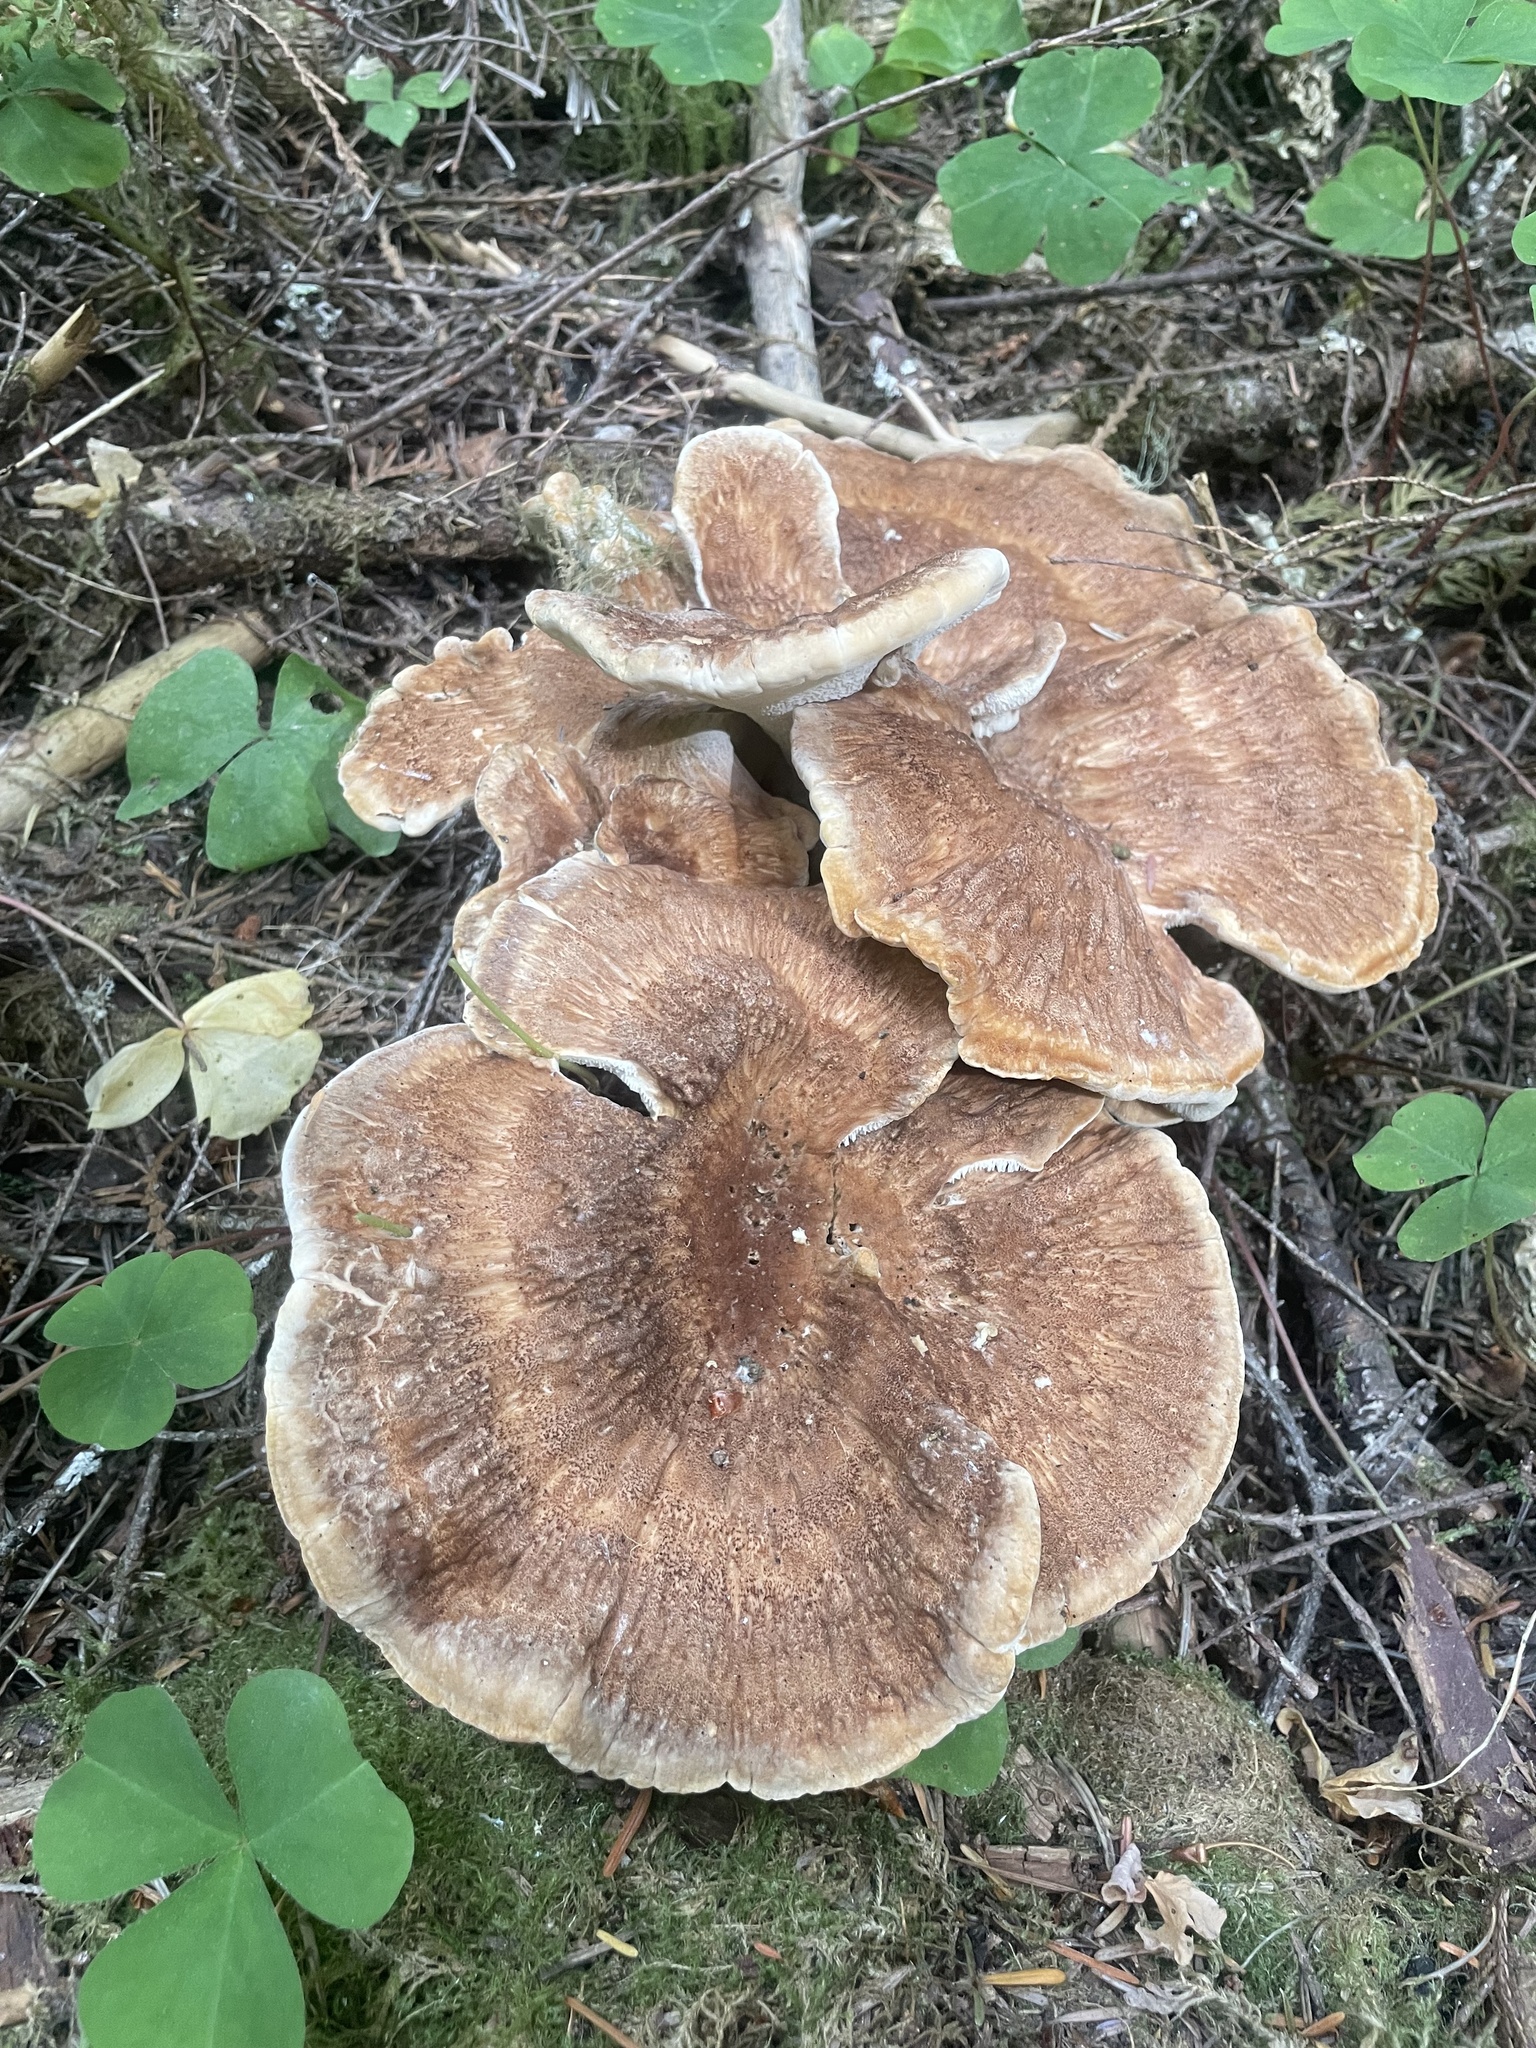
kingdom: Fungi
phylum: Basidiomycota
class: Agaricomycetes
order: Russulales
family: Bondarzewiaceae
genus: Bondarzewia
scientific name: Bondarzewia occidentalis
